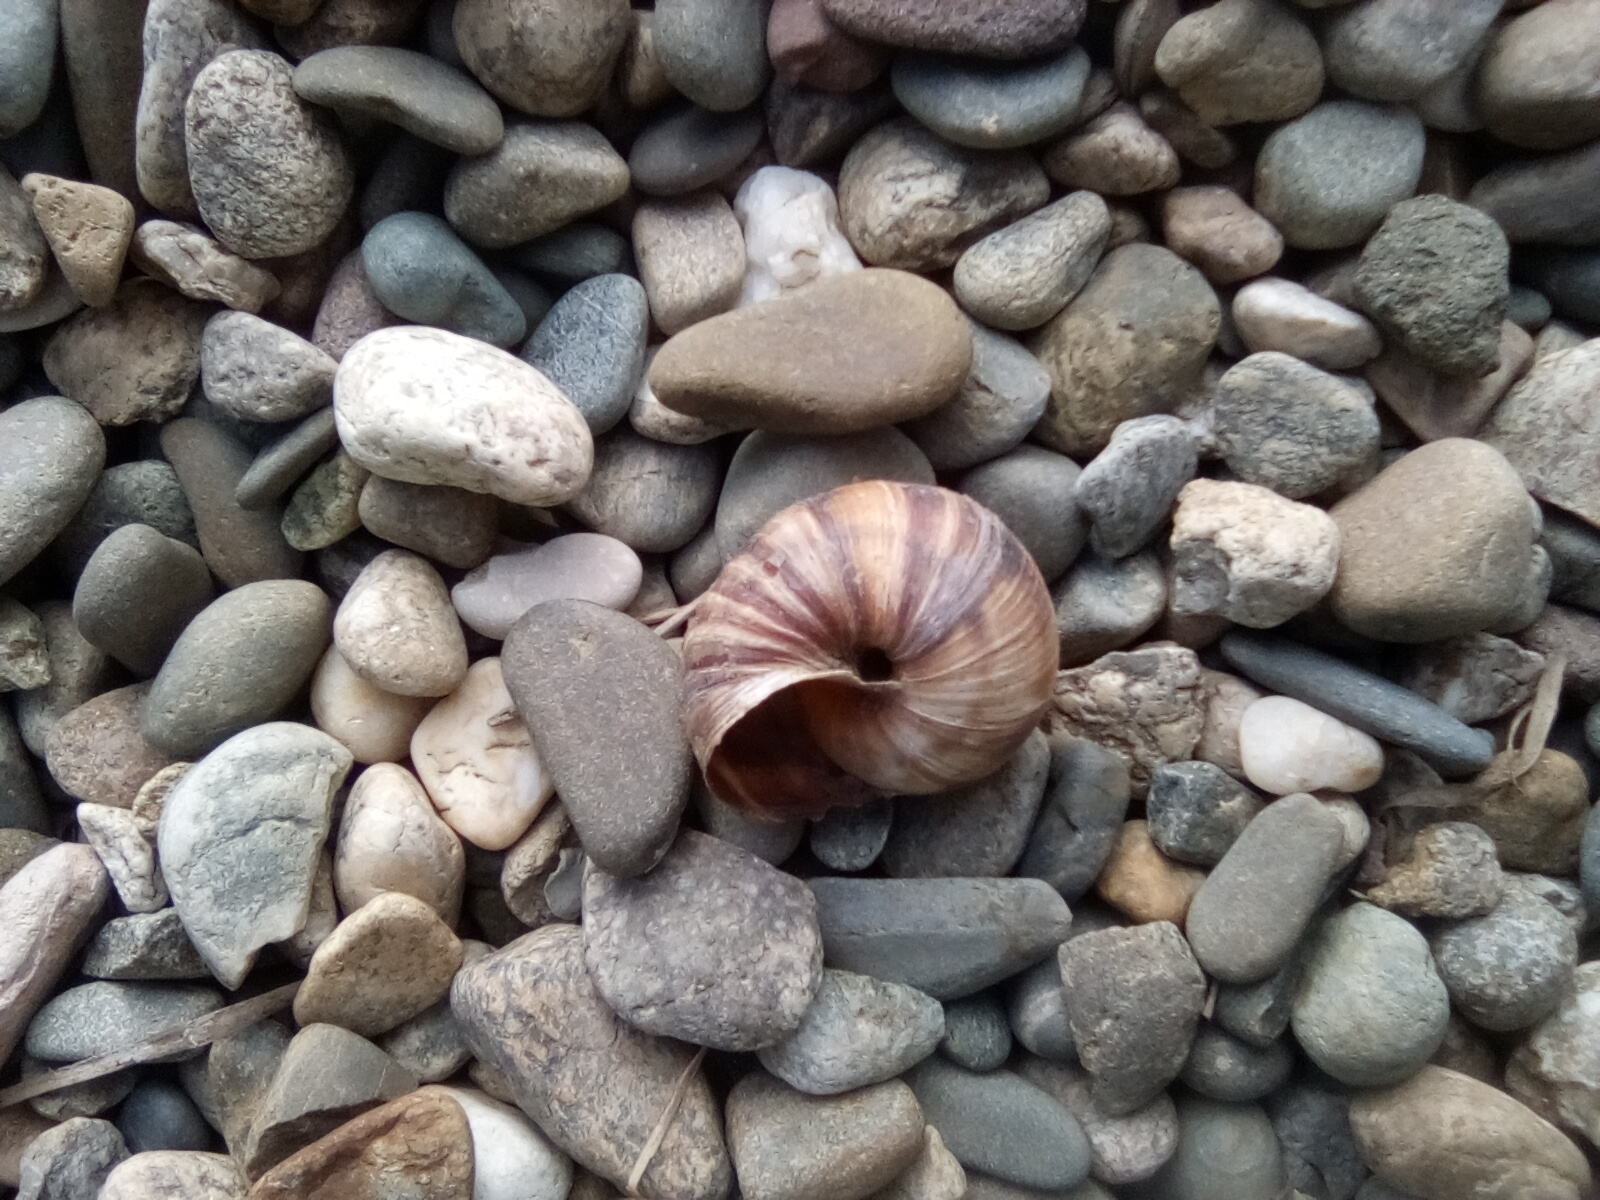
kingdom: Animalia
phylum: Mollusca
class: Gastropoda
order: Stylommatophora
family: Helicidae
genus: Helix
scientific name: Helix lucorum
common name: Turkish snail
